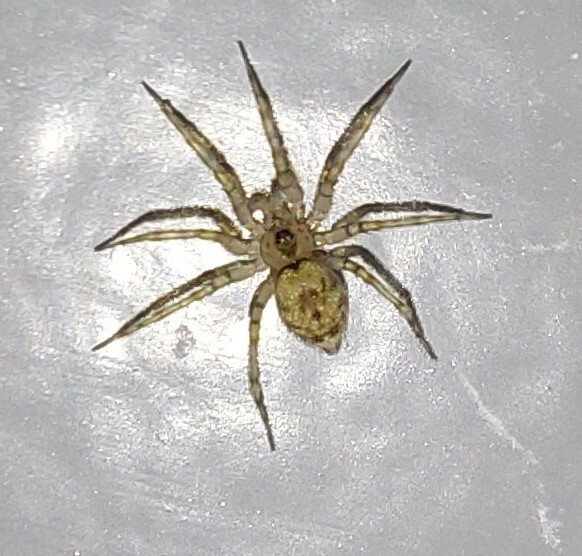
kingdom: Animalia
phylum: Arthropoda
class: Arachnida
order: Araneae
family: Oecobiidae
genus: Oecobius
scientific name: Oecobius navus
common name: Flatmesh weaver
